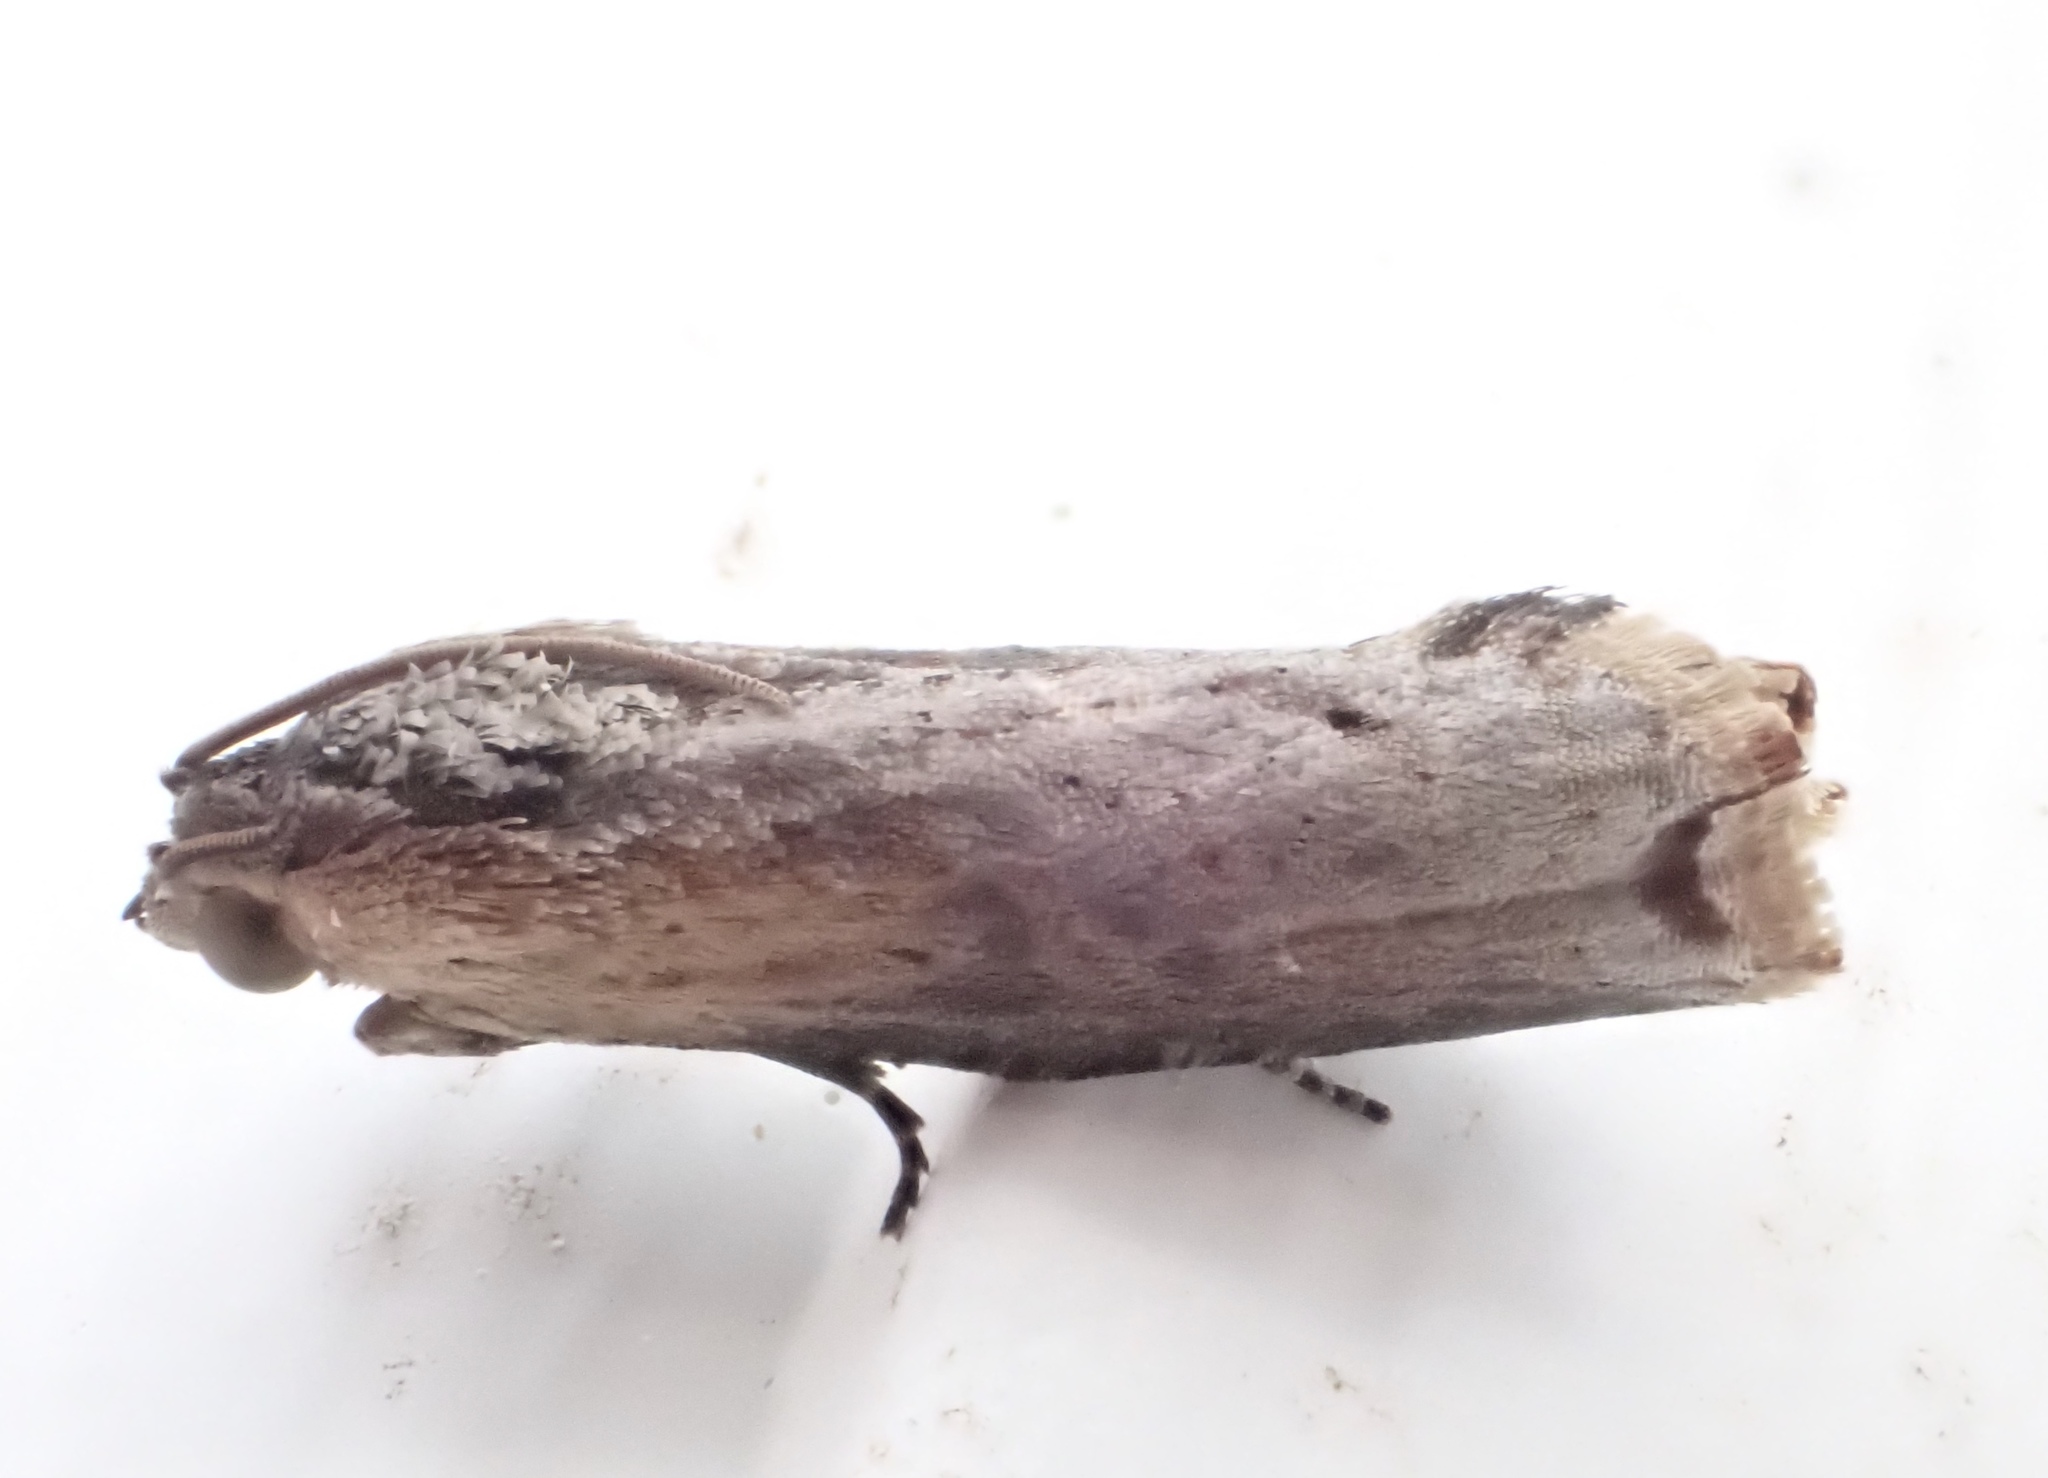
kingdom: Animalia
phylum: Arthropoda
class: Insecta
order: Lepidoptera
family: Tortricidae
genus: Pseudogalleria
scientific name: Pseudogalleria inimicella
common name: Inimical borer moth
